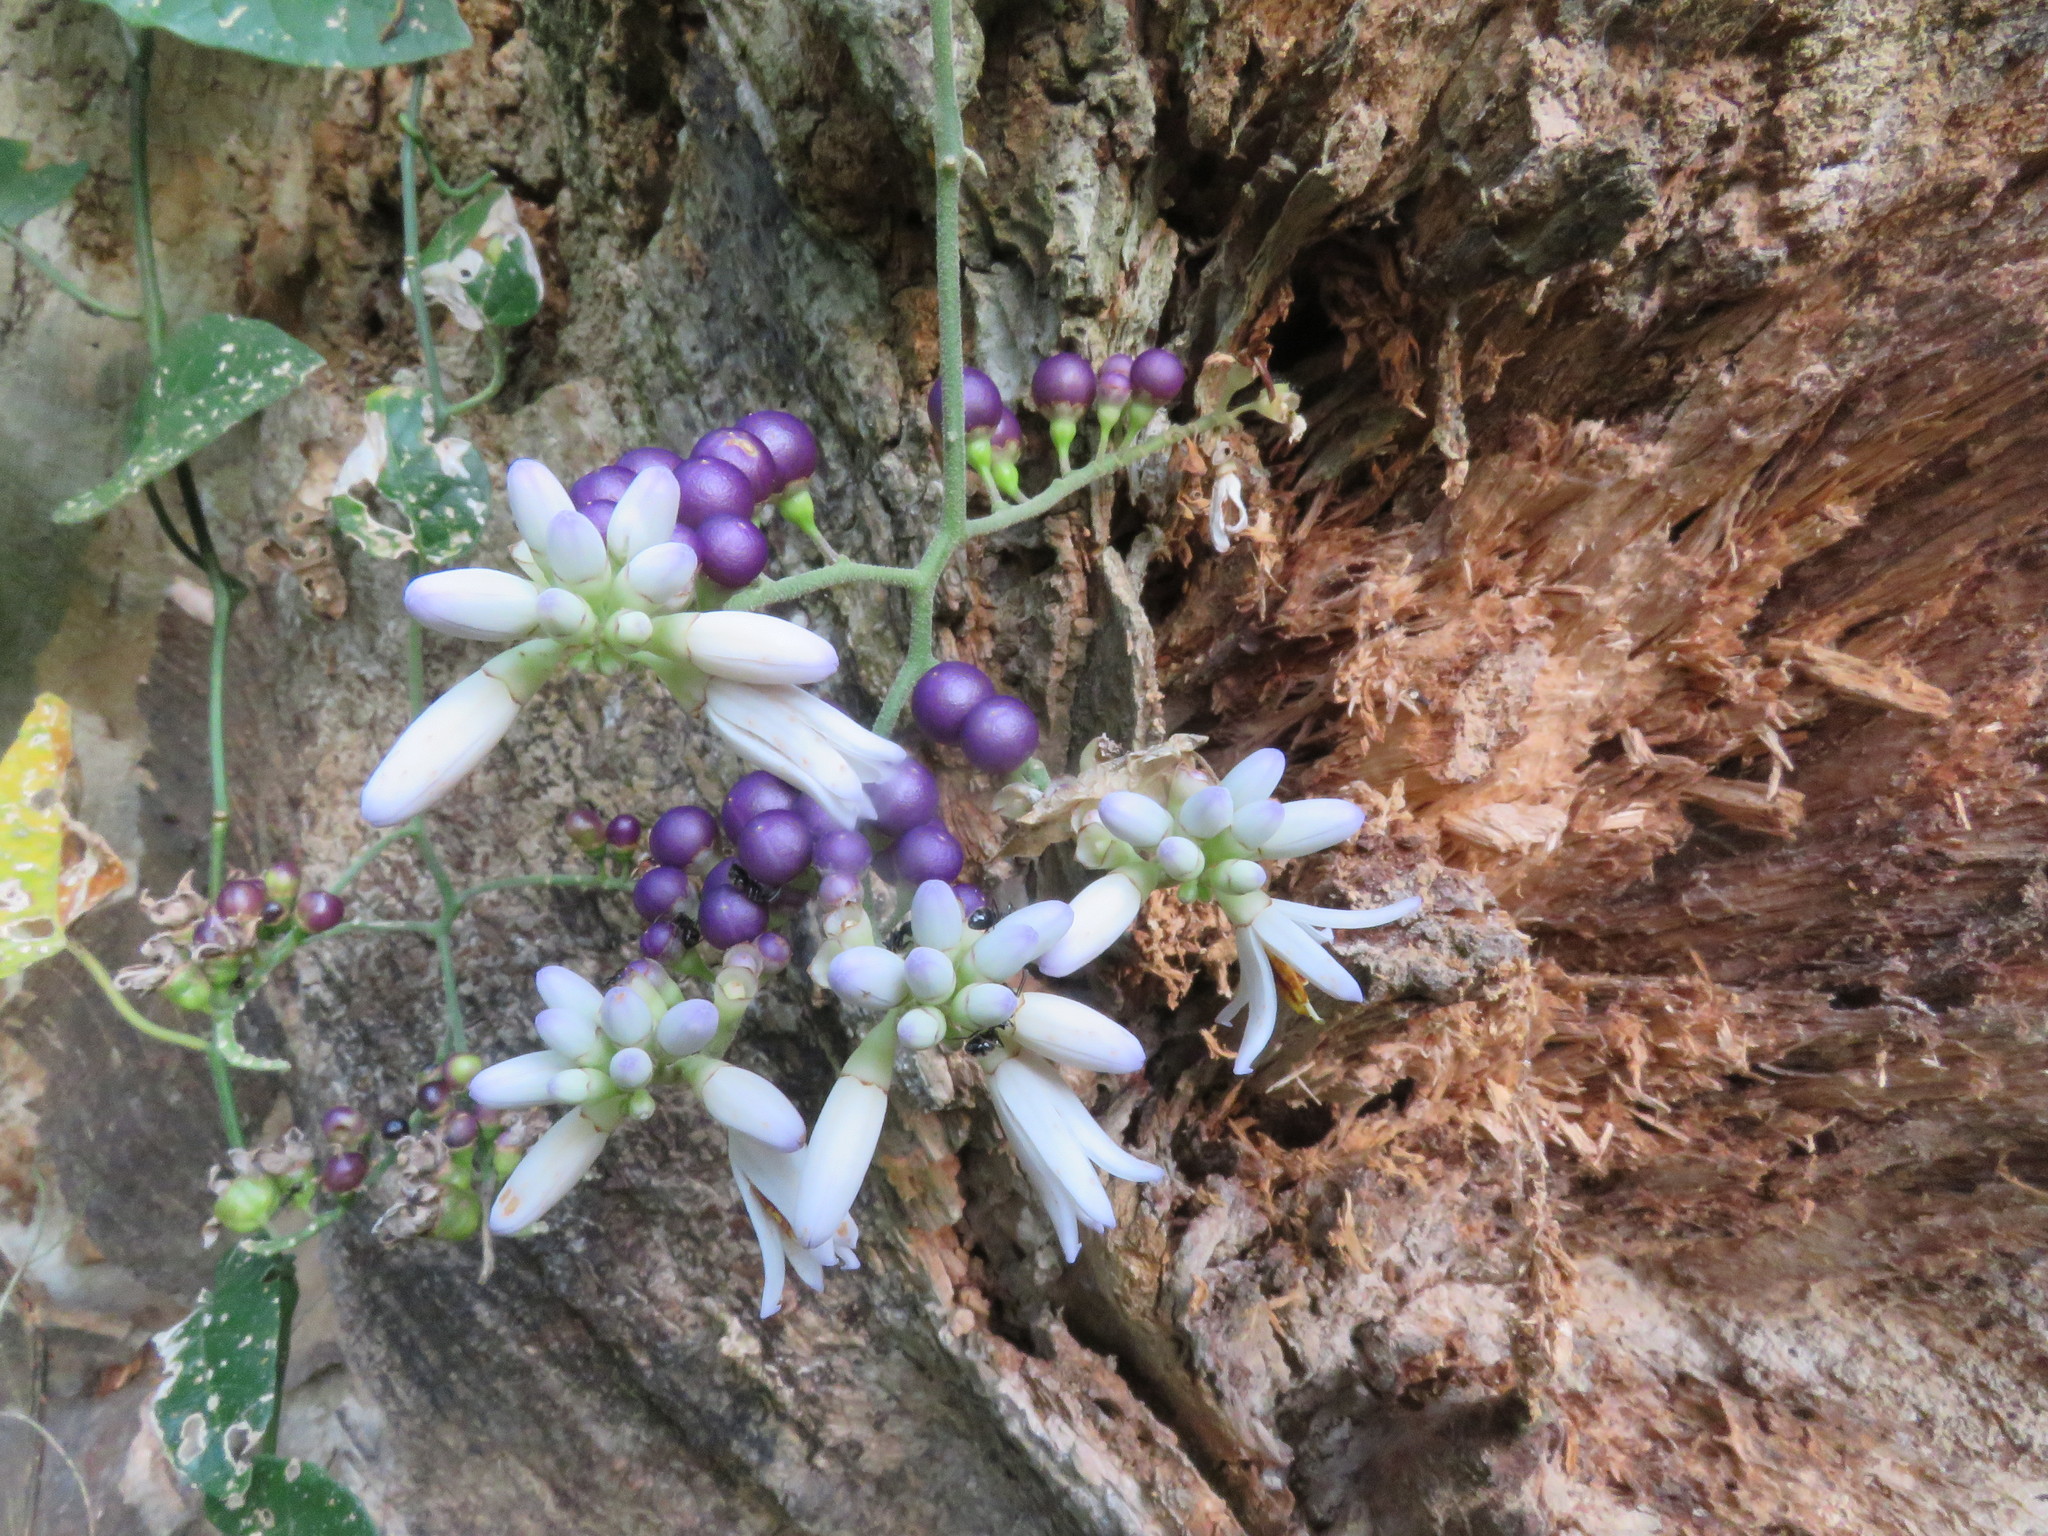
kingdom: Plantae
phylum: Tracheophyta
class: Magnoliopsida
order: Solanales
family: Solanaceae
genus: Solanum
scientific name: Solanum uncinellum
